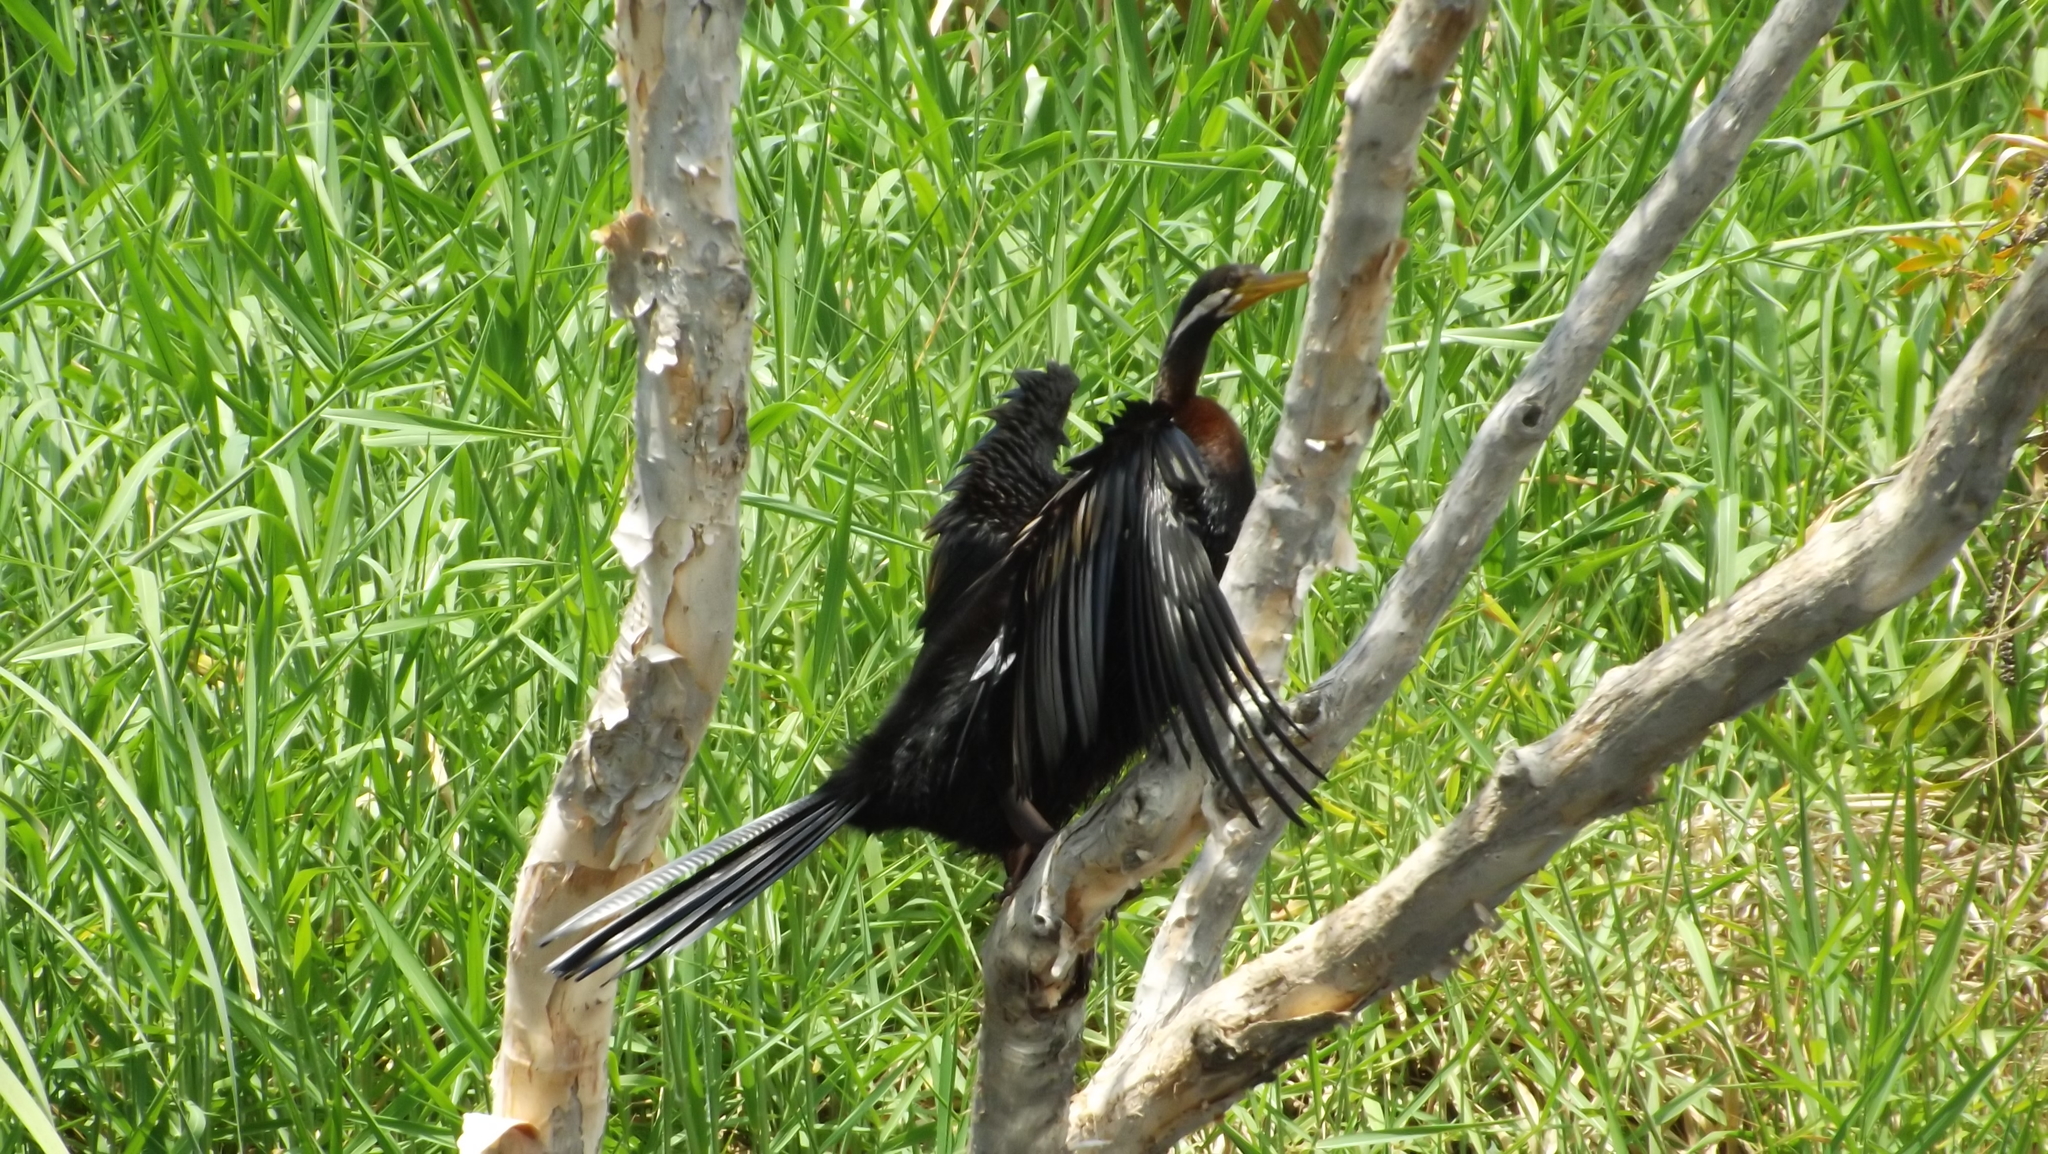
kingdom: Animalia
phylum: Chordata
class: Aves
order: Suliformes
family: Anhingidae
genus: Anhinga
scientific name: Anhinga novaehollandiae
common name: Australasian darter
